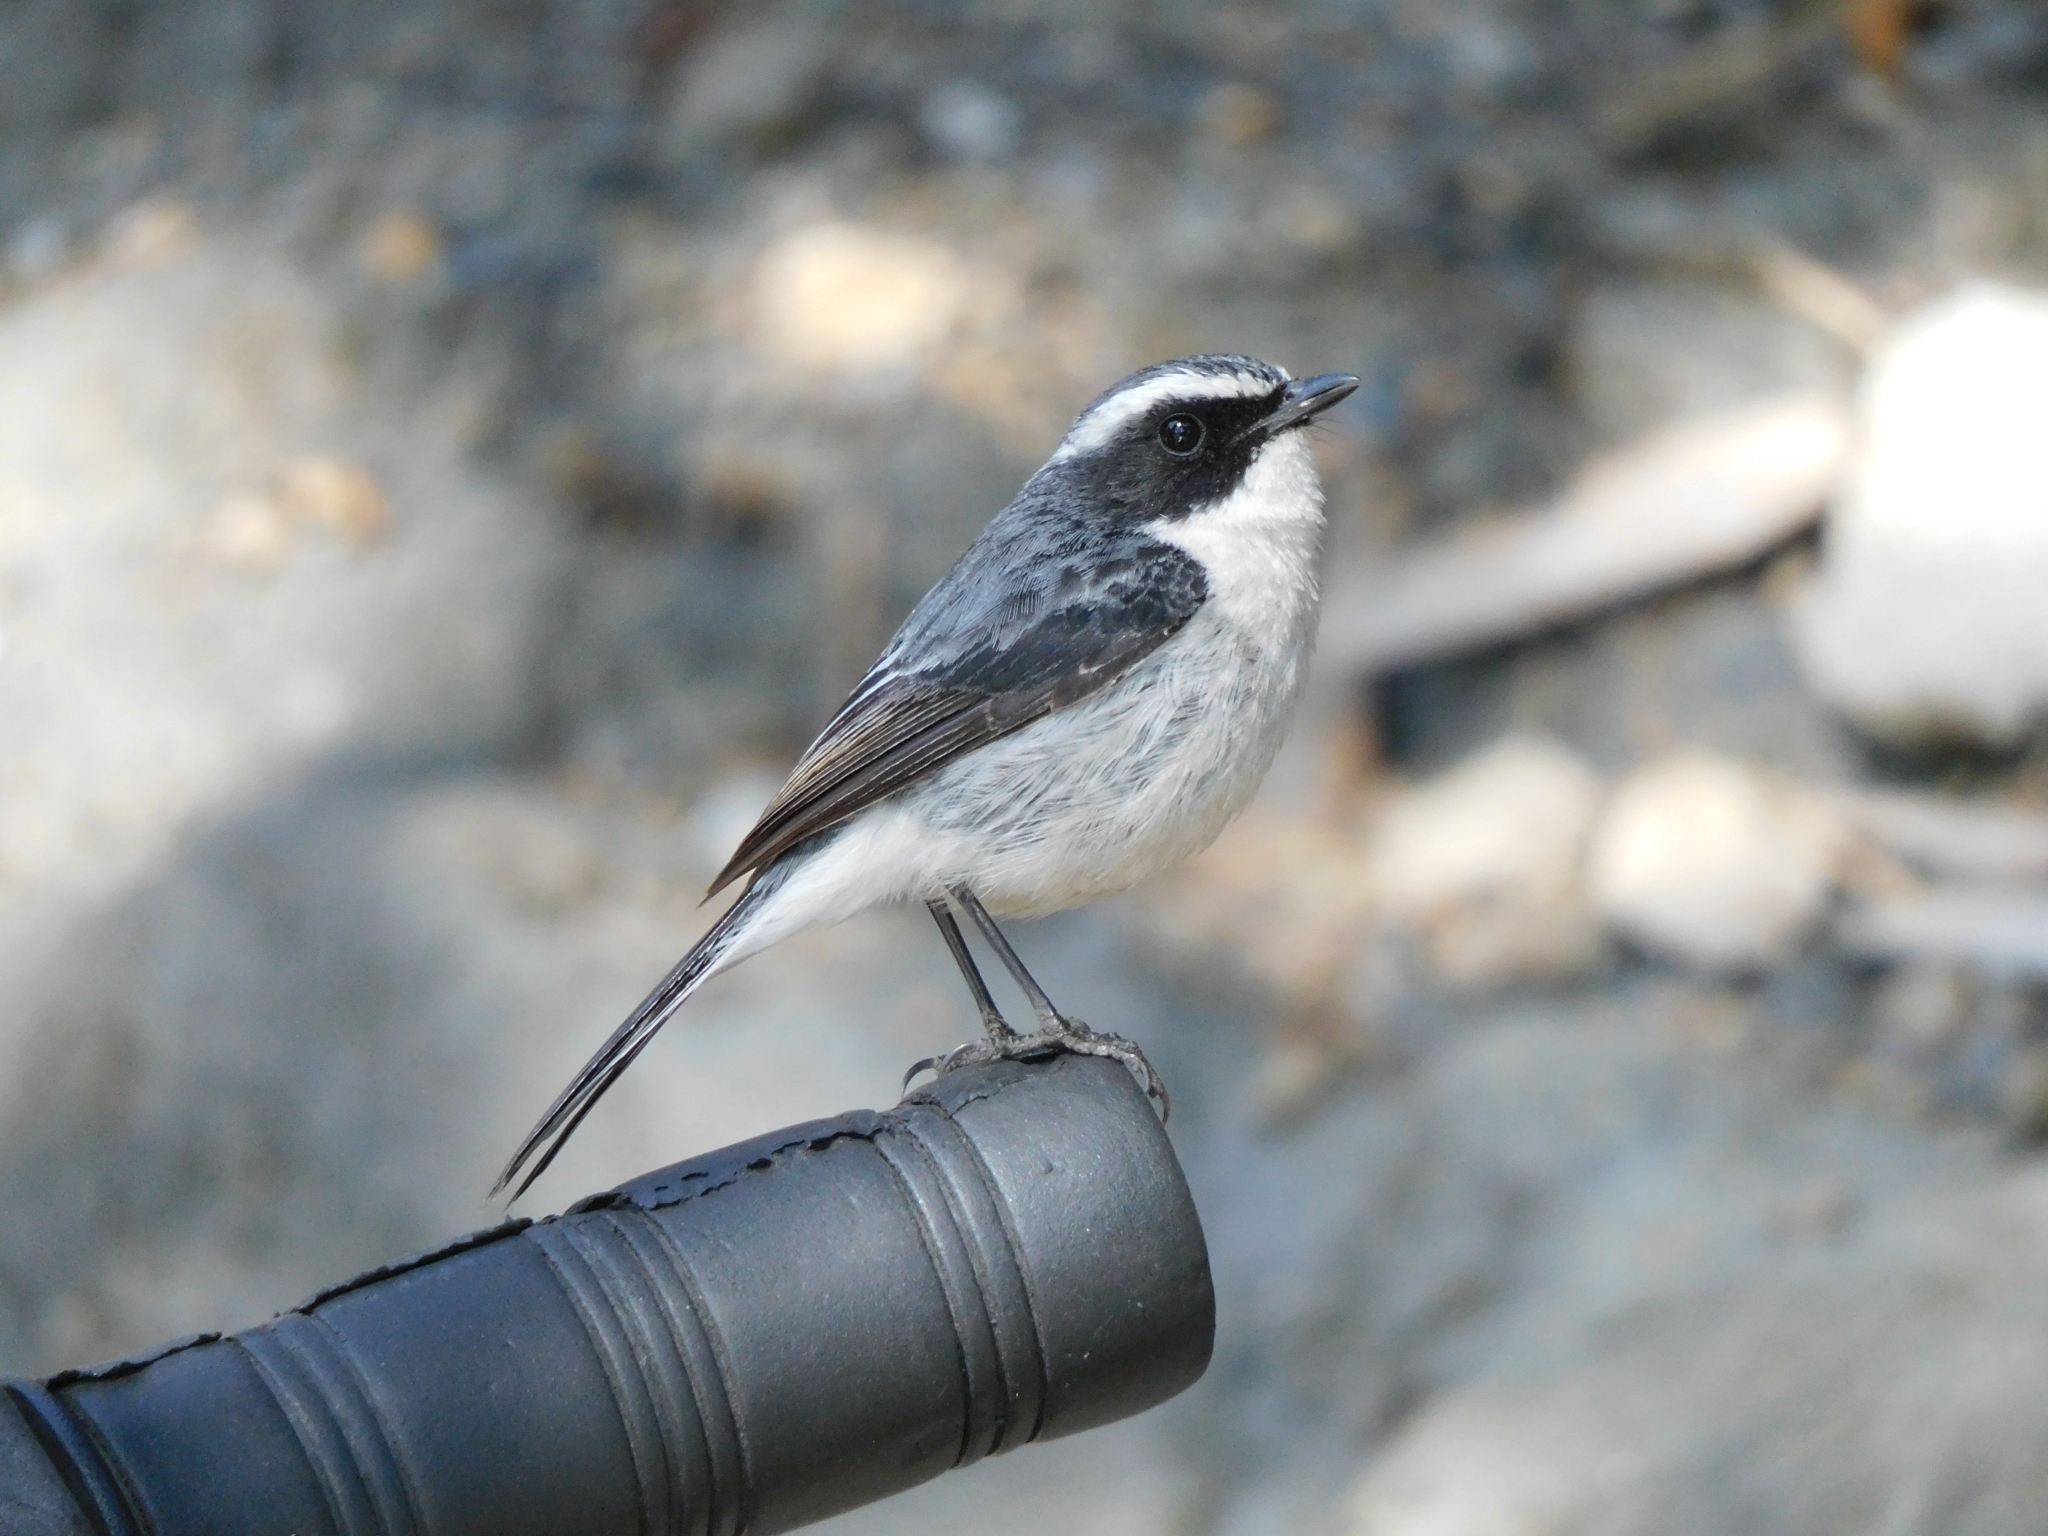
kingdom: Animalia
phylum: Chordata
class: Aves
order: Passeriformes
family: Muscicapidae
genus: Saxicola
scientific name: Saxicola ferreus
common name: Grey bush chat
